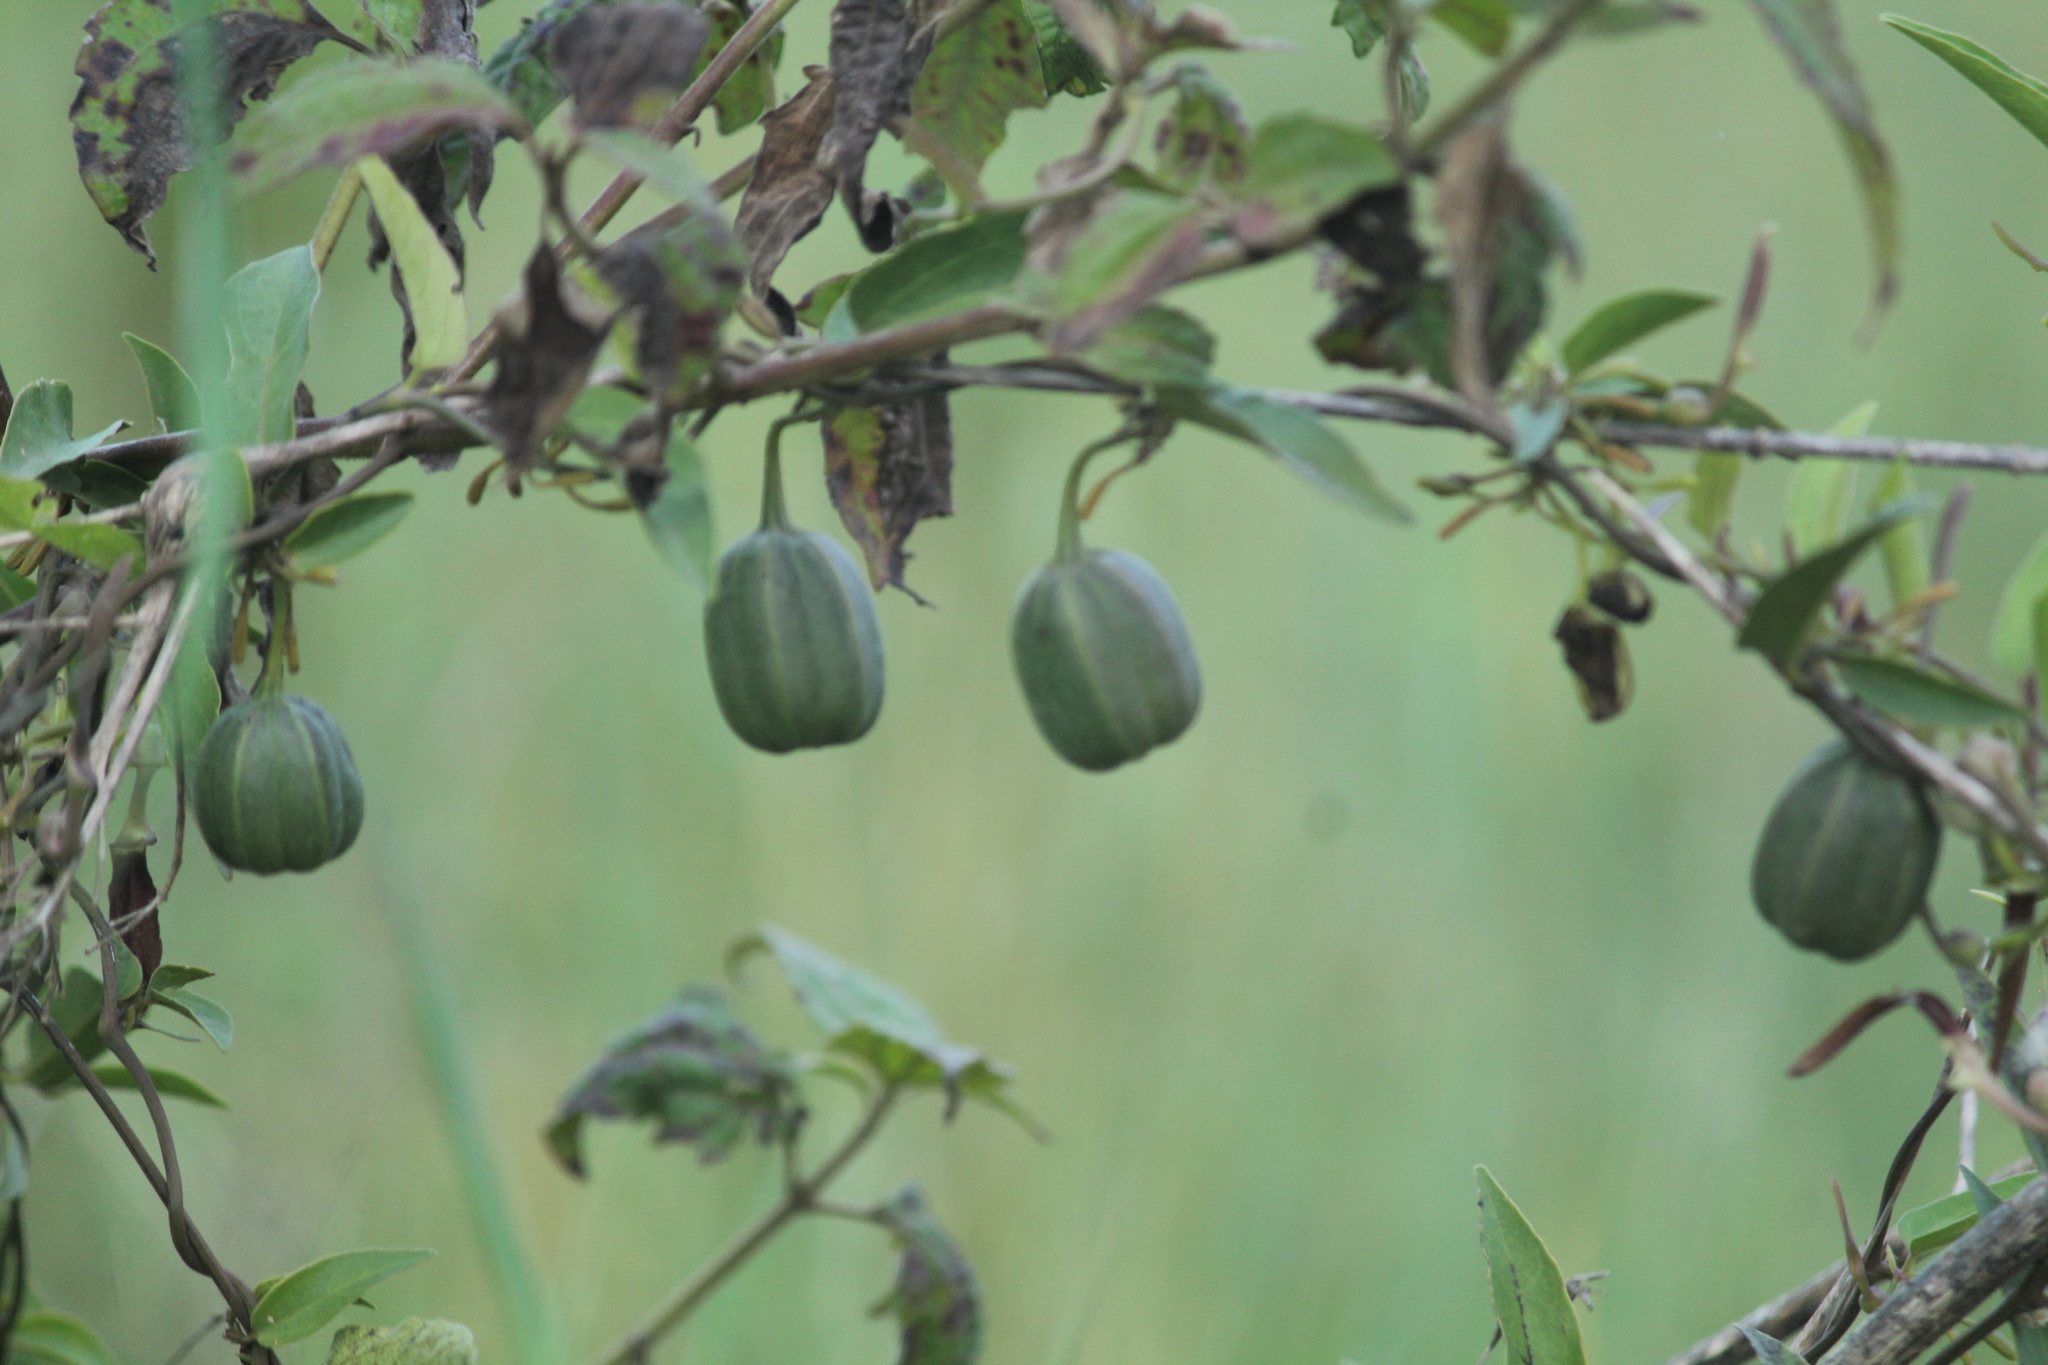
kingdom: Plantae
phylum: Tracheophyta
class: Magnoliopsida
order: Piperales
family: Aristolochiaceae
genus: Aristolochia
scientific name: Aristolochia indica
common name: Indian birthwort
